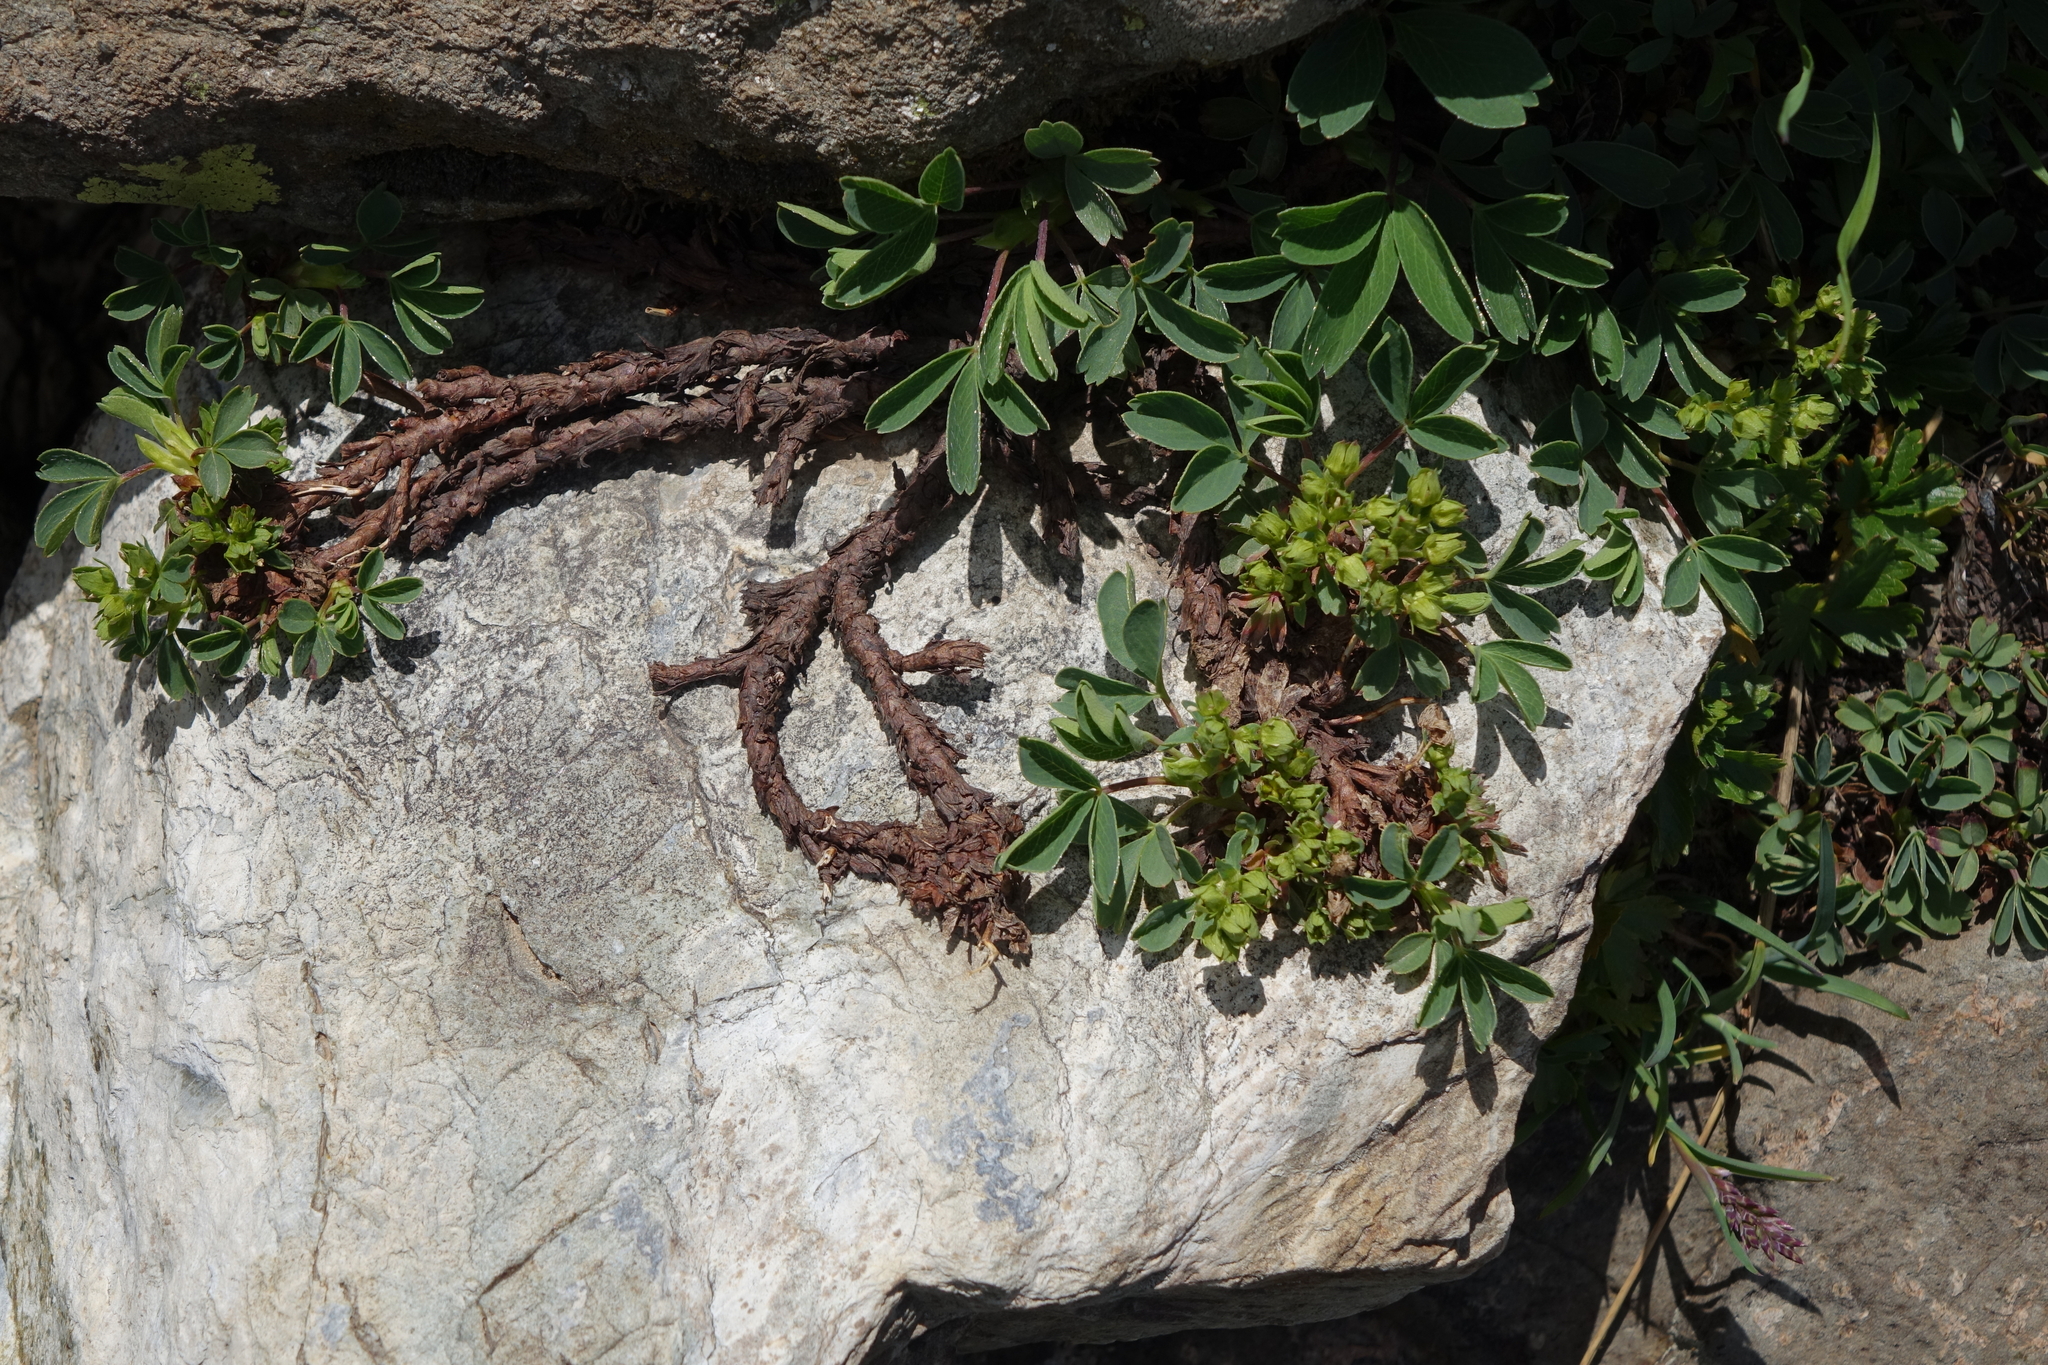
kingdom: Plantae
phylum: Tracheophyta
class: Magnoliopsida
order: Rosales
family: Rosaceae
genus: Sibbaldia
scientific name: Sibbaldia parviflora
